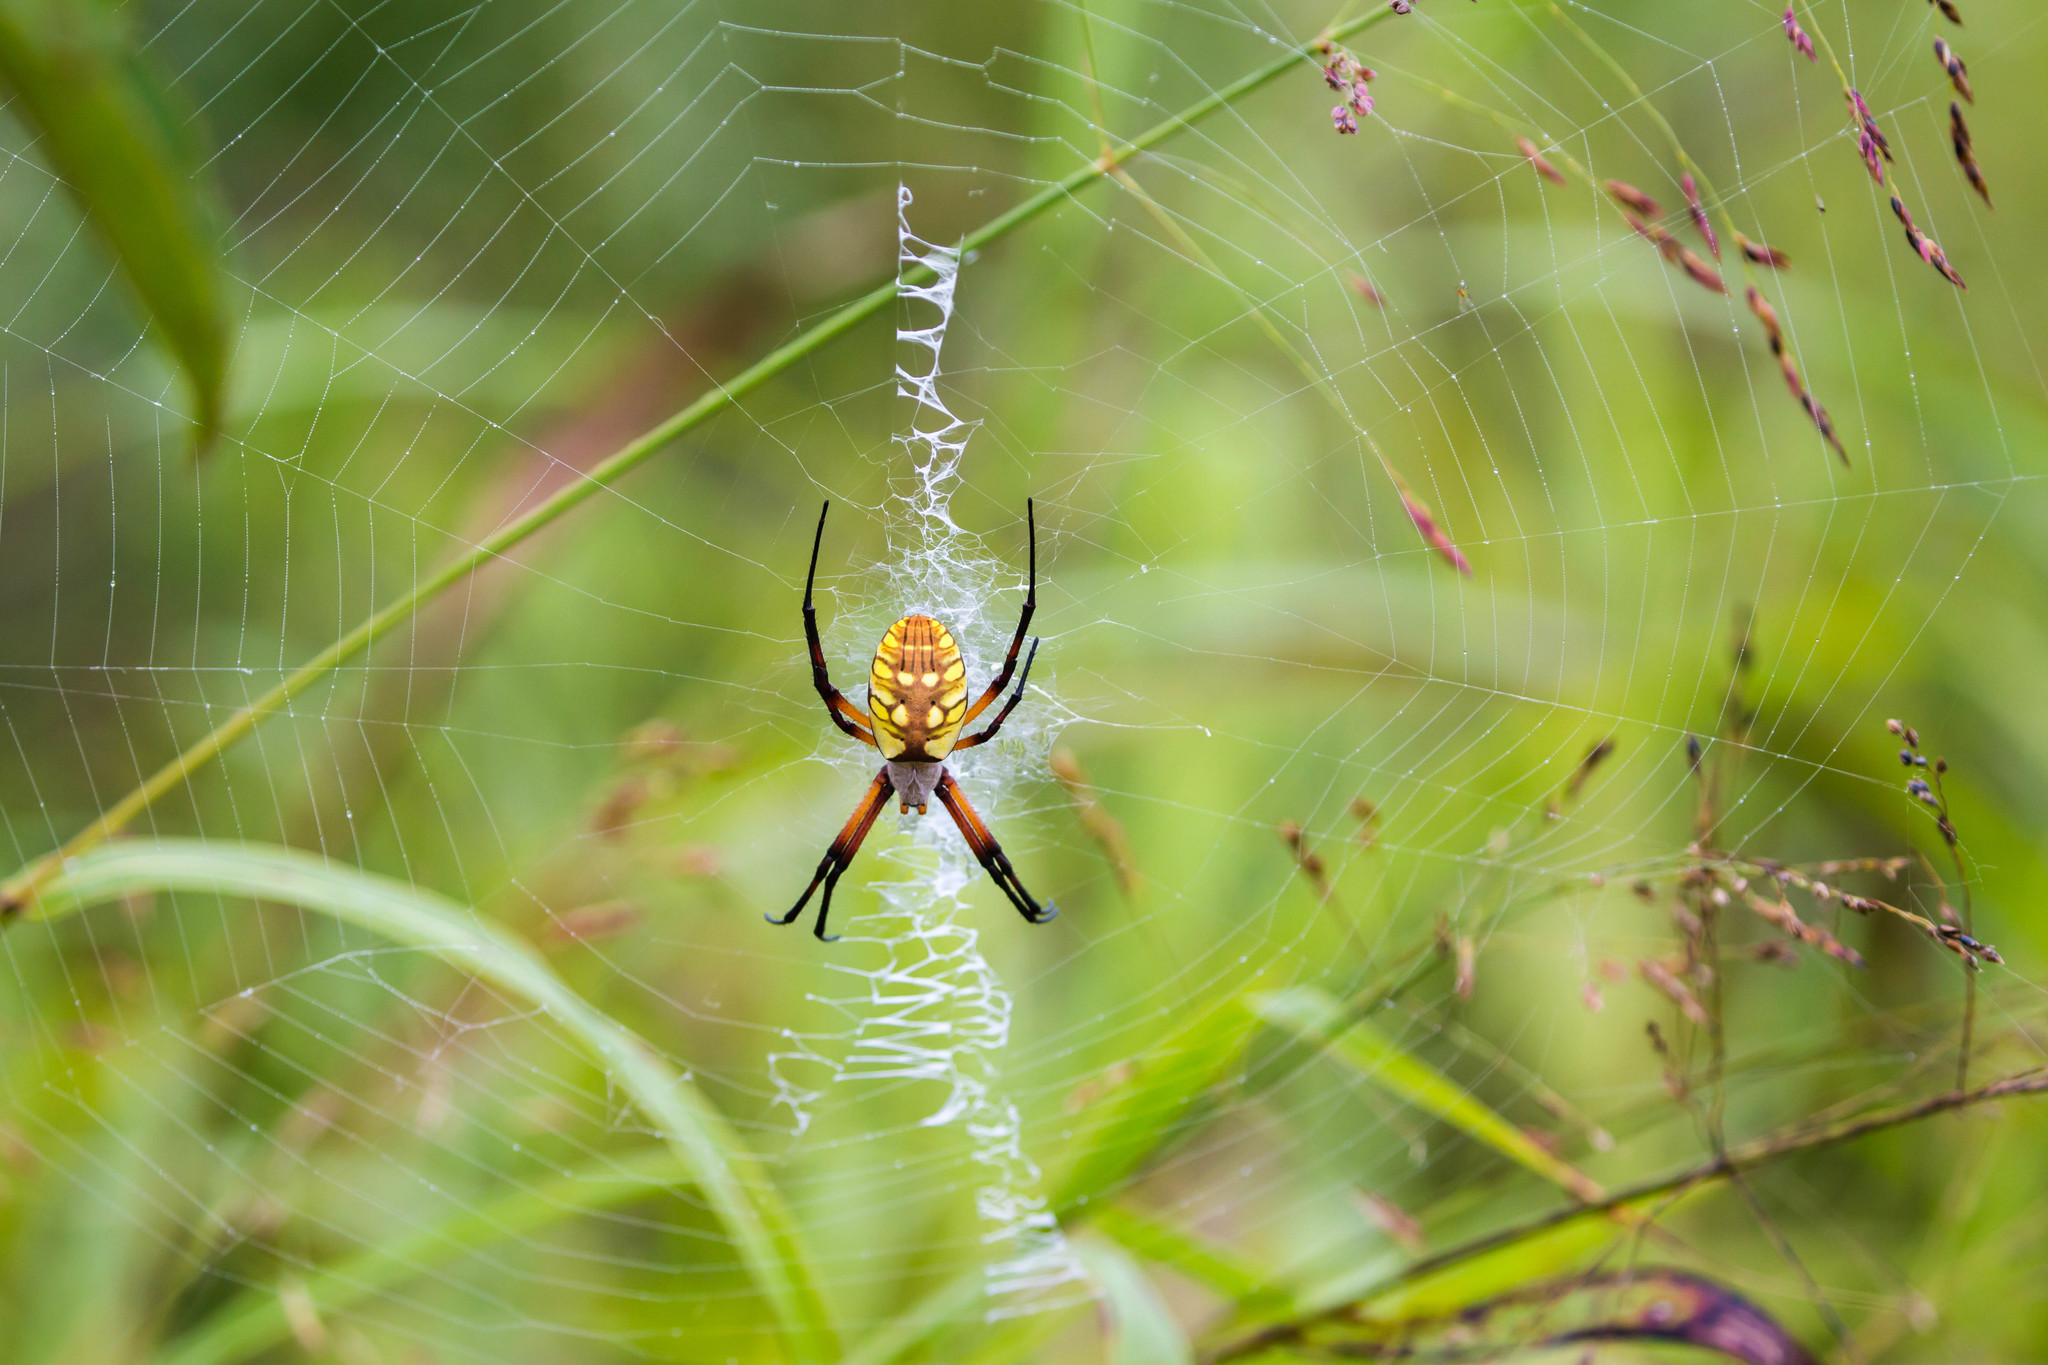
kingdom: Animalia
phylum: Arthropoda
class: Arachnida
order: Araneae
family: Araneidae
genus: Argiope
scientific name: Argiope aurantia
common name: Orb weavers
